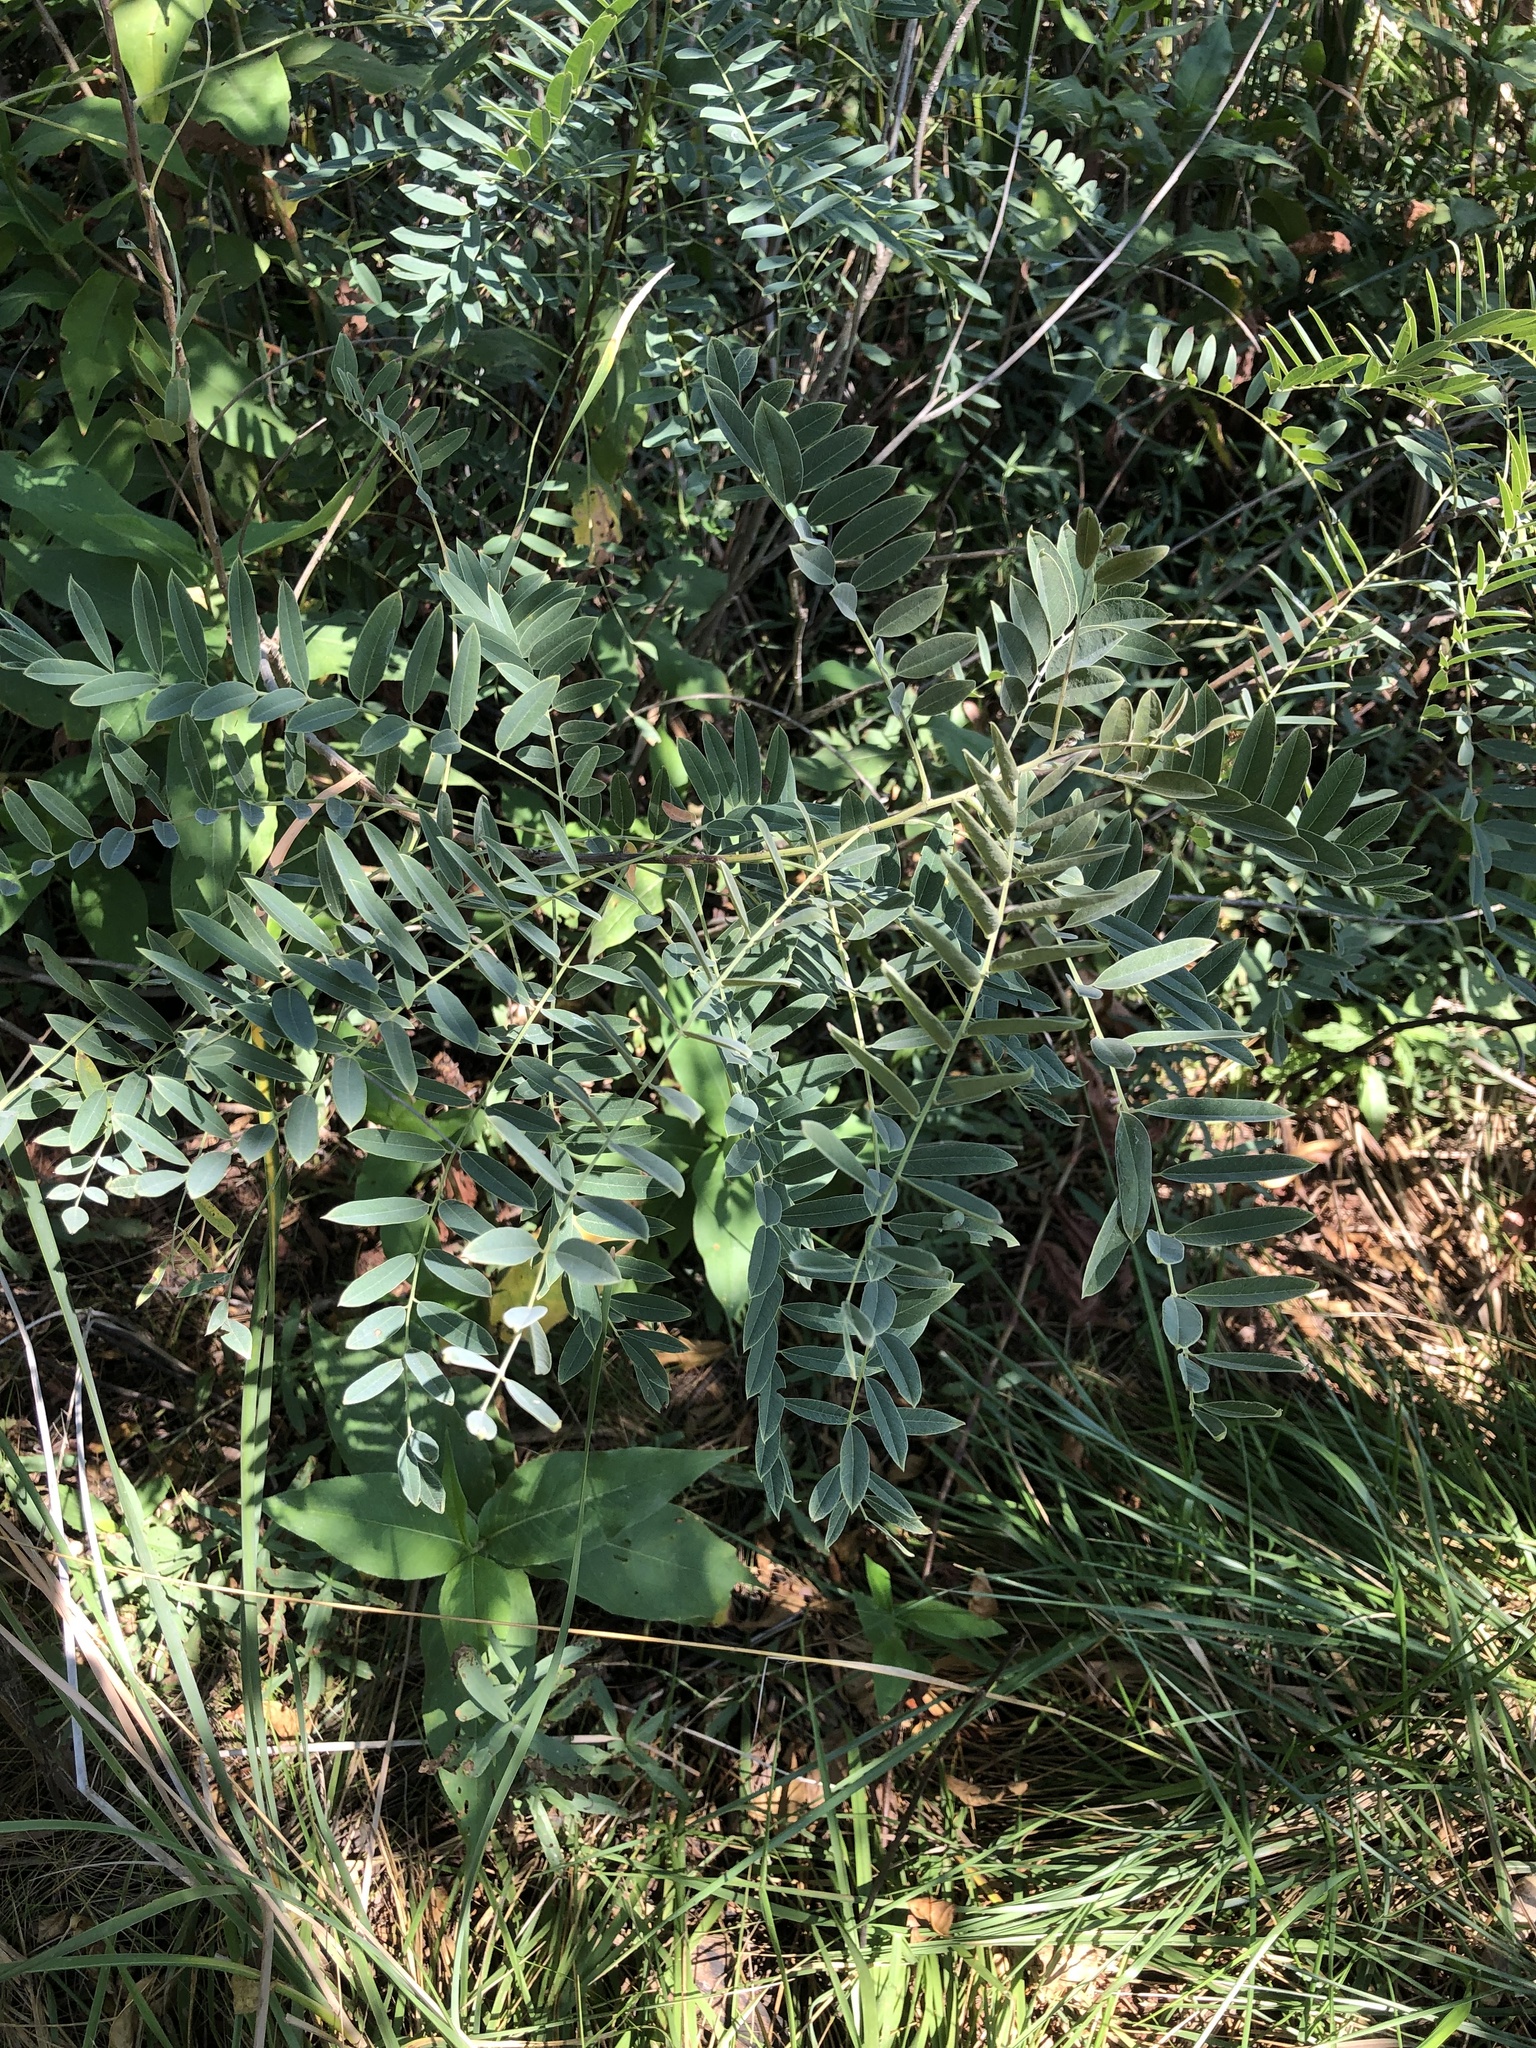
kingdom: Plantae
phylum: Tracheophyta
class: Magnoliopsida
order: Fabales
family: Fabaceae
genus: Amorpha
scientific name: Amorpha fruticosa
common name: False indigo
